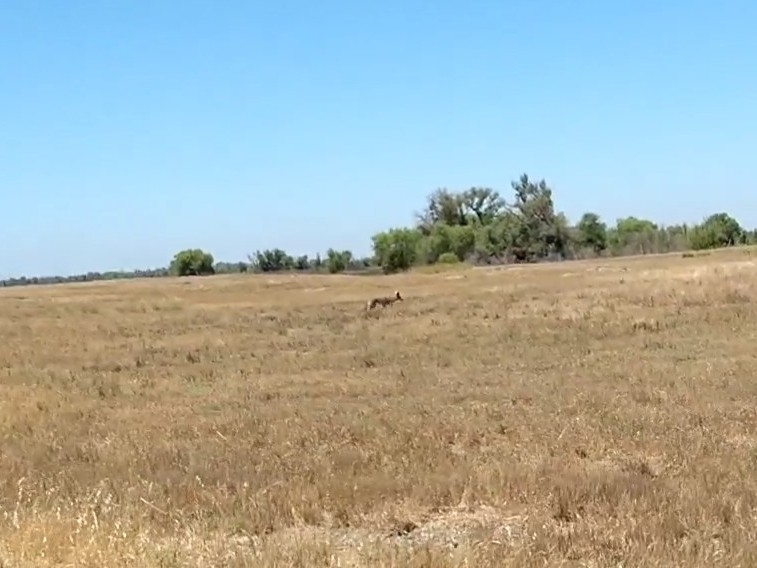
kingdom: Animalia
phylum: Chordata
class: Mammalia
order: Carnivora
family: Canidae
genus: Canis
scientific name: Canis latrans
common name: Coyote
